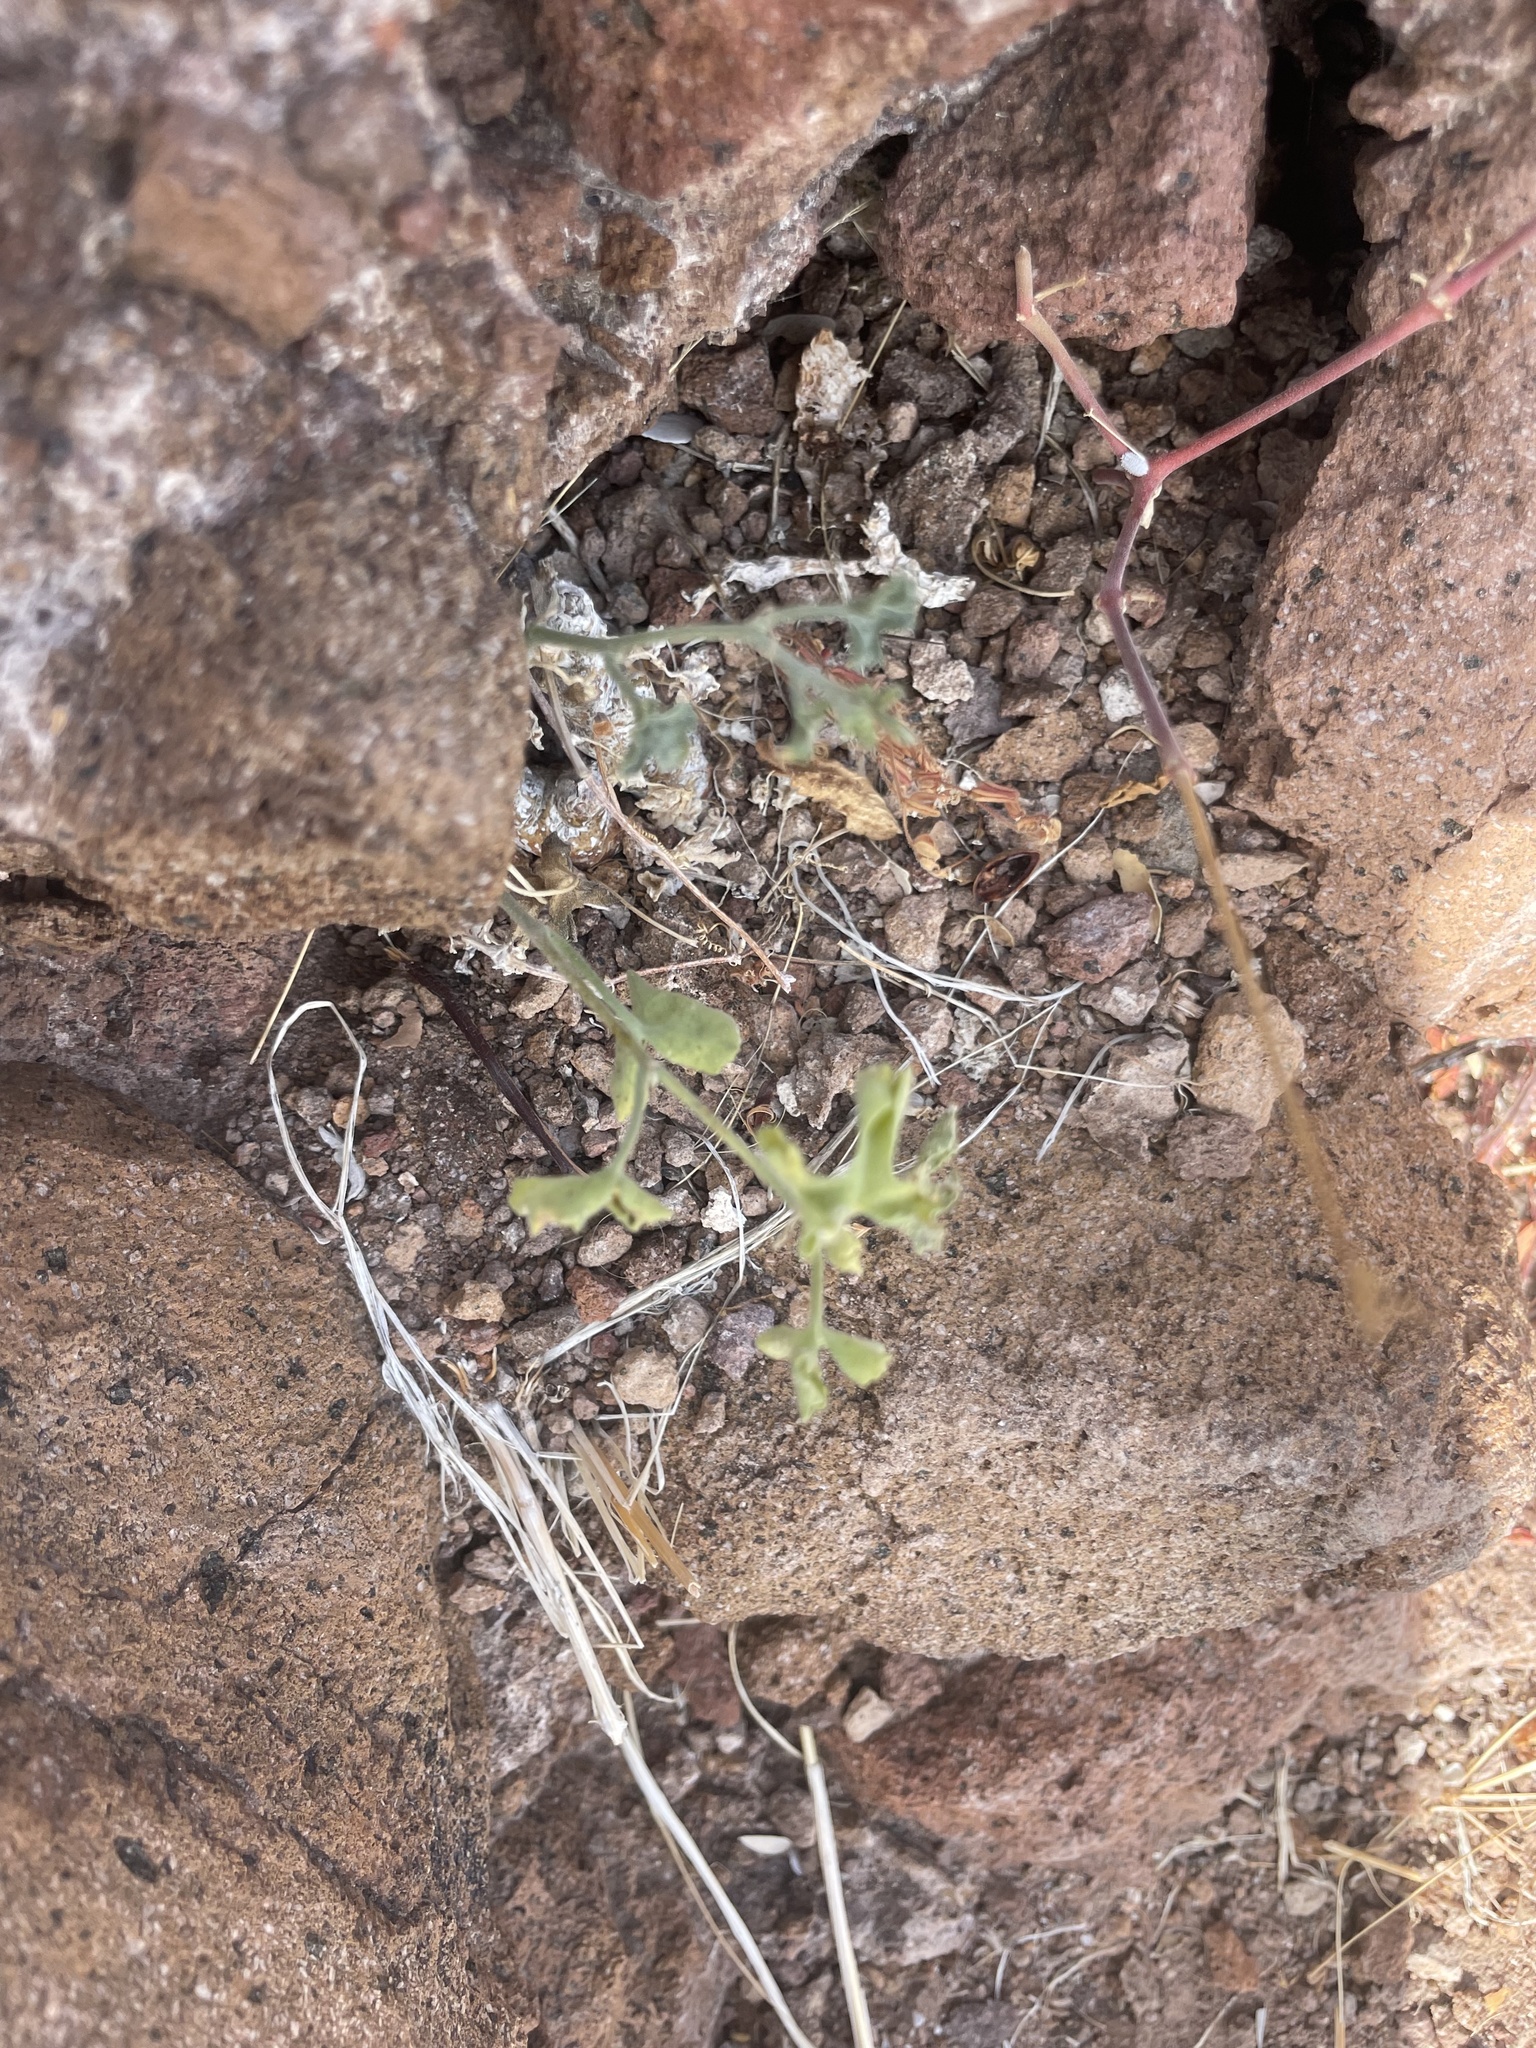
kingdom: Plantae
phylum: Tracheophyta
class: Magnoliopsida
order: Cucurbitales
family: Cucurbitaceae
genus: Ibervillea
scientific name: Ibervillea sonorae
